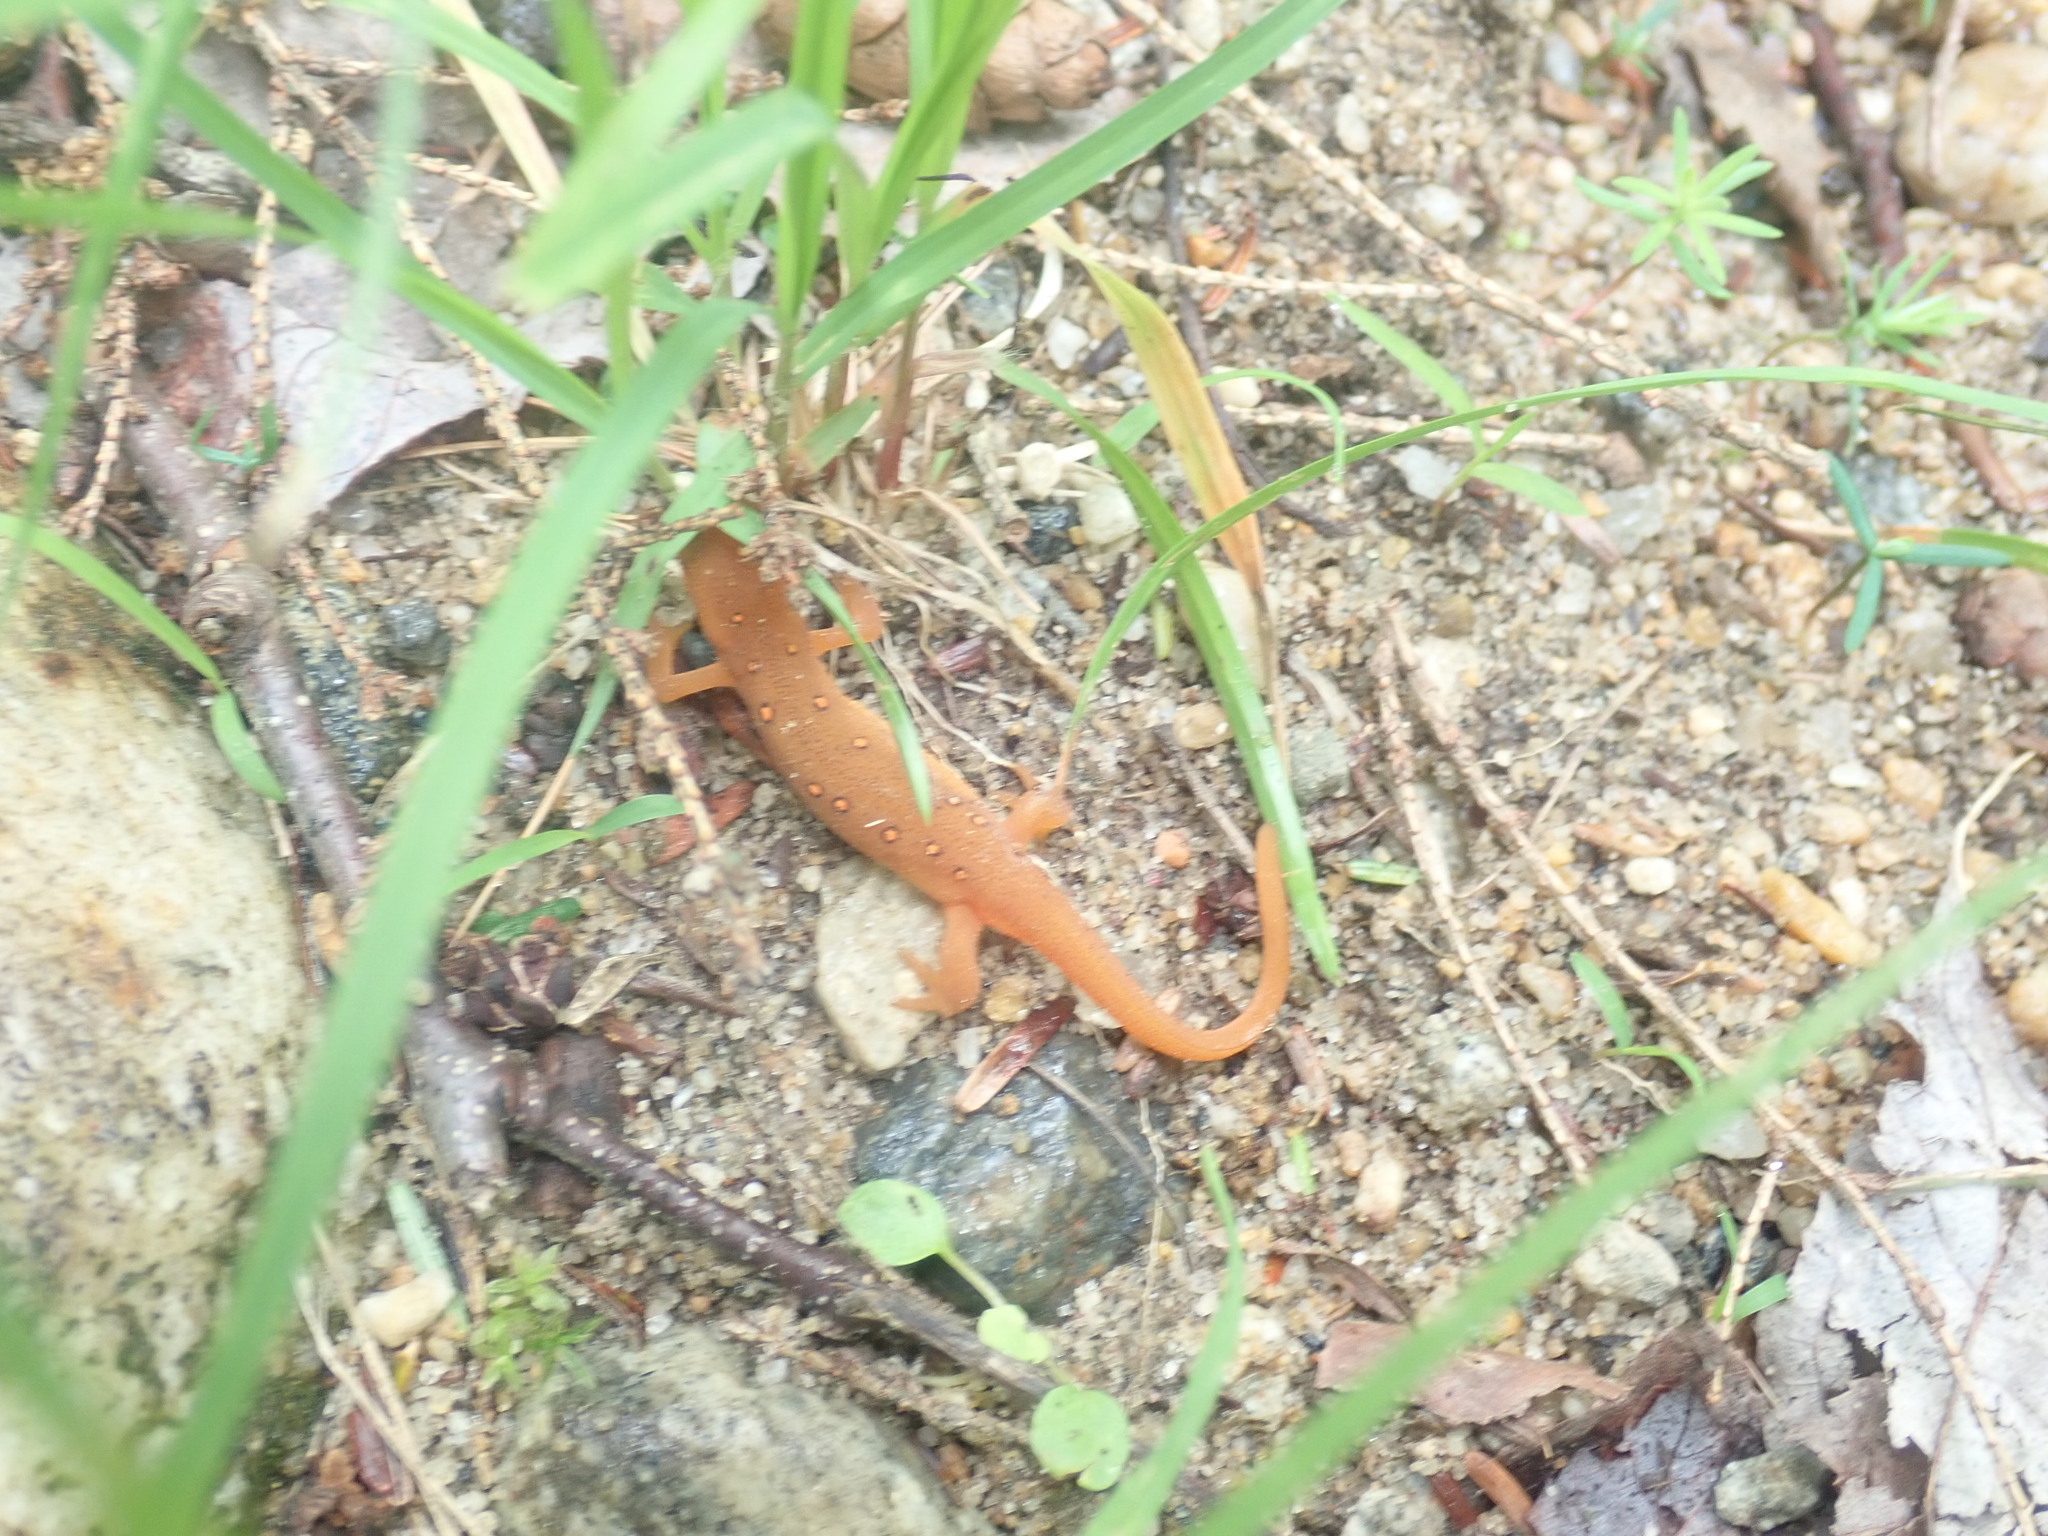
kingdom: Animalia
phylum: Chordata
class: Amphibia
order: Caudata
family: Salamandridae
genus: Notophthalmus
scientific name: Notophthalmus viridescens
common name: Eastern newt
